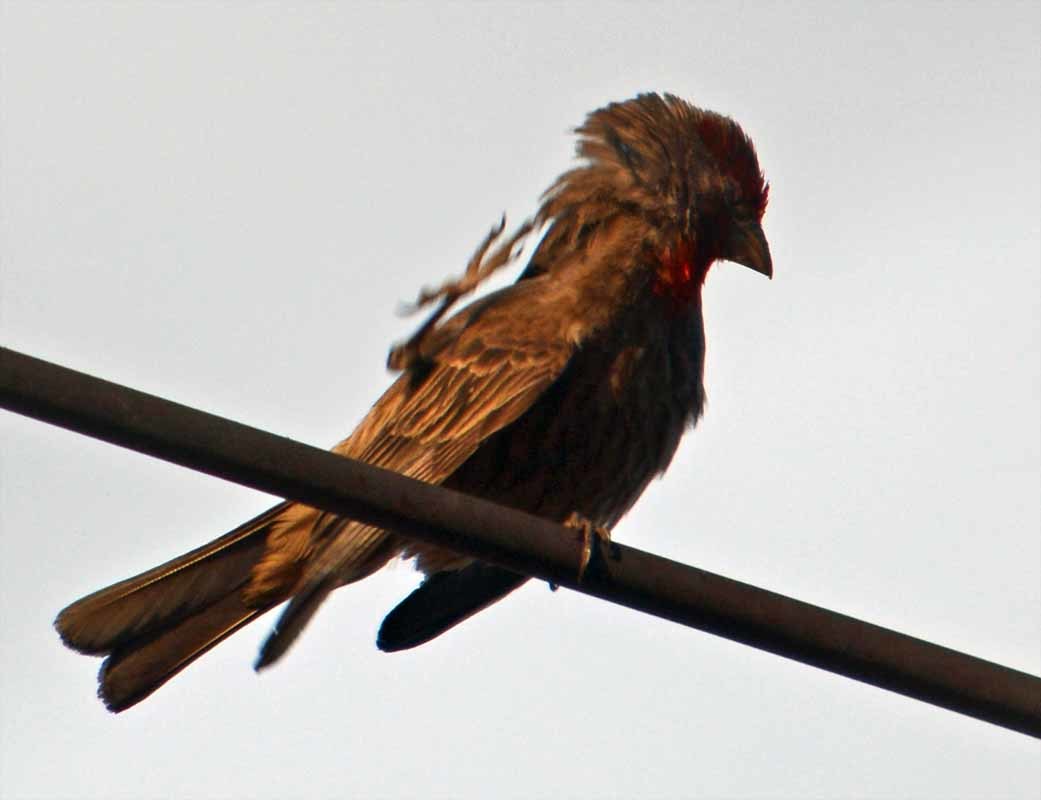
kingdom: Animalia
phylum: Chordata
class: Aves
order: Passeriformes
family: Fringillidae
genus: Haemorhous
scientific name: Haemorhous mexicanus
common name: House finch
